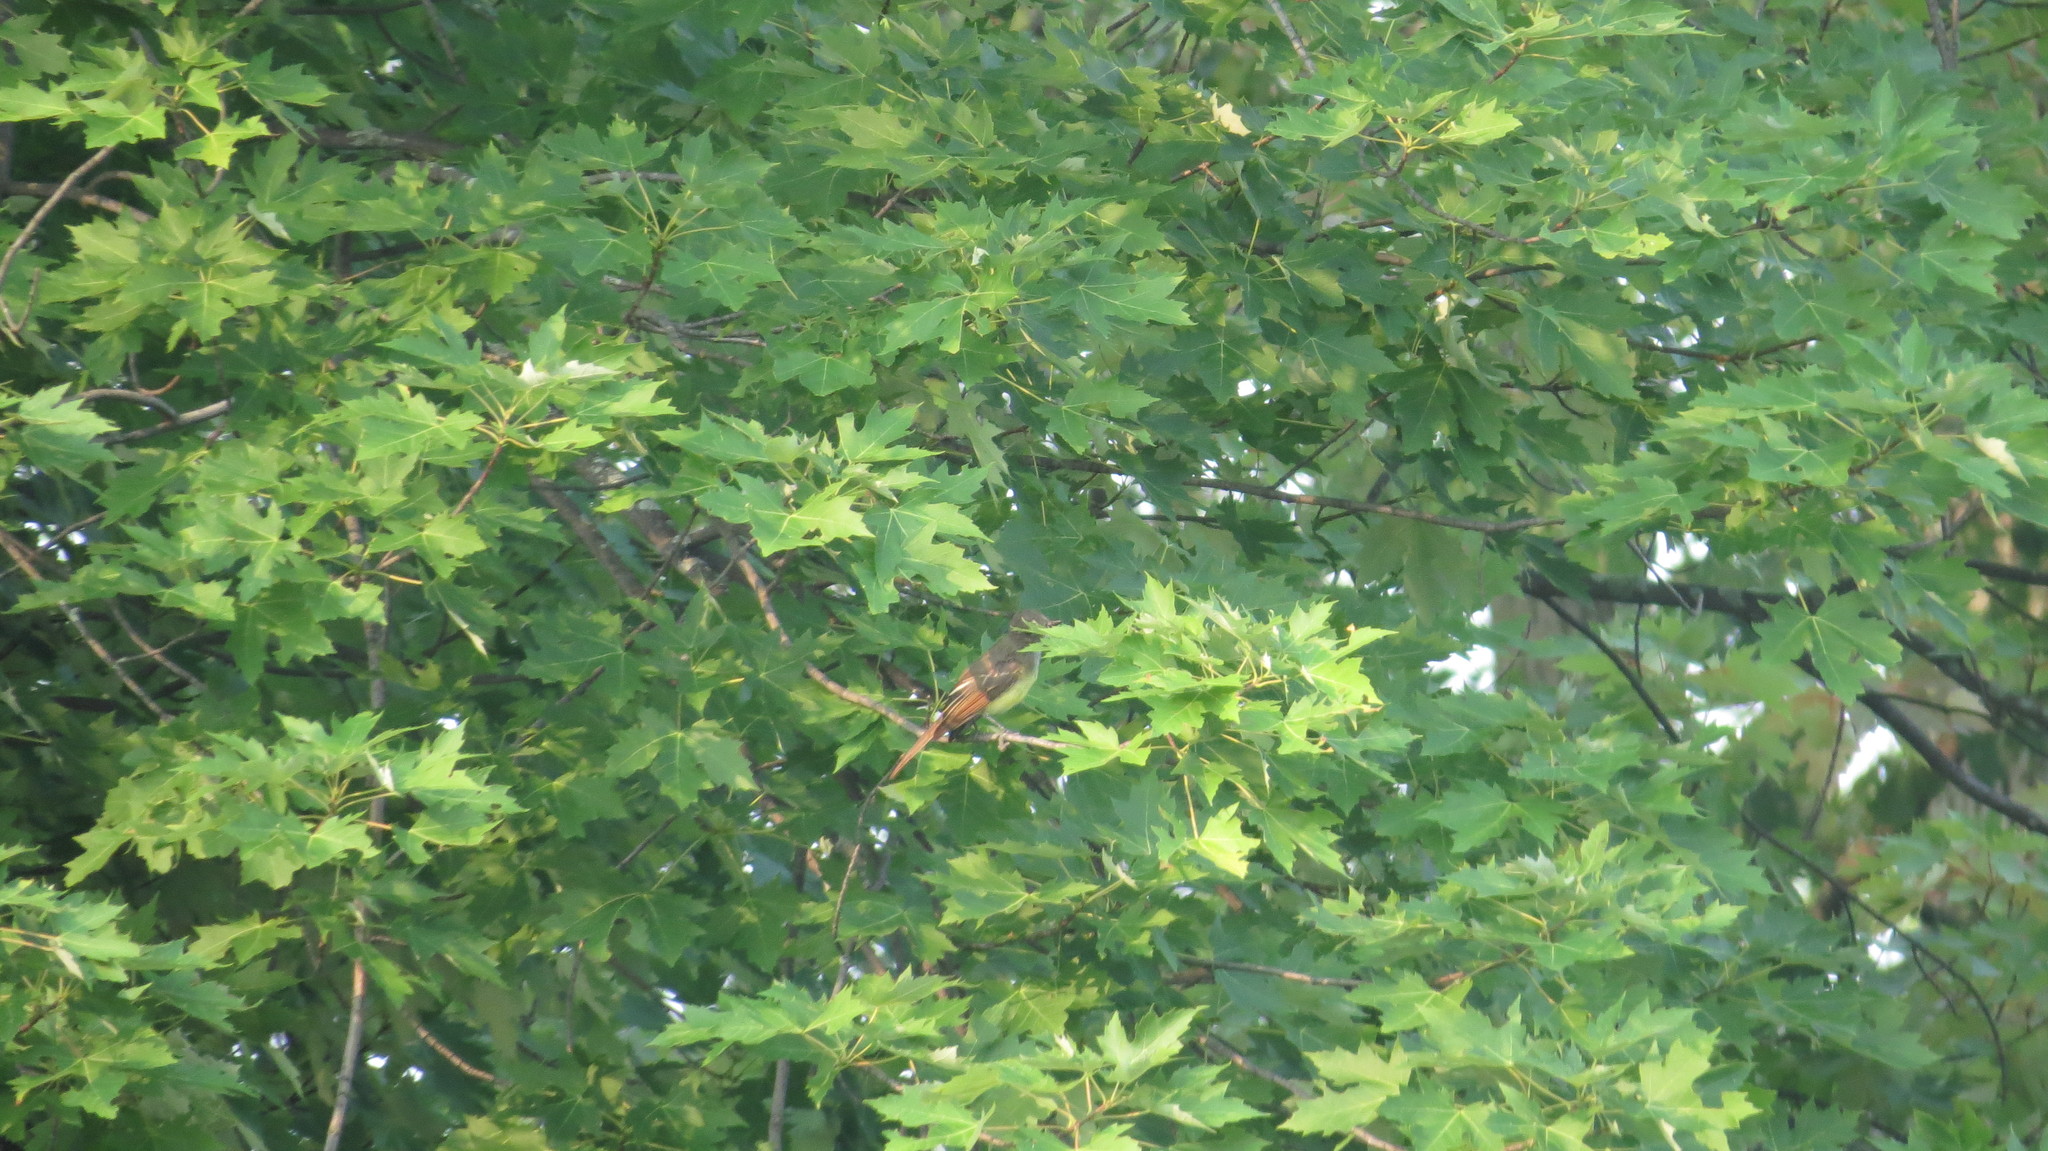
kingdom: Animalia
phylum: Chordata
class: Aves
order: Passeriformes
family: Tyrannidae
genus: Myiarchus
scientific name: Myiarchus crinitus
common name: Great crested flycatcher
